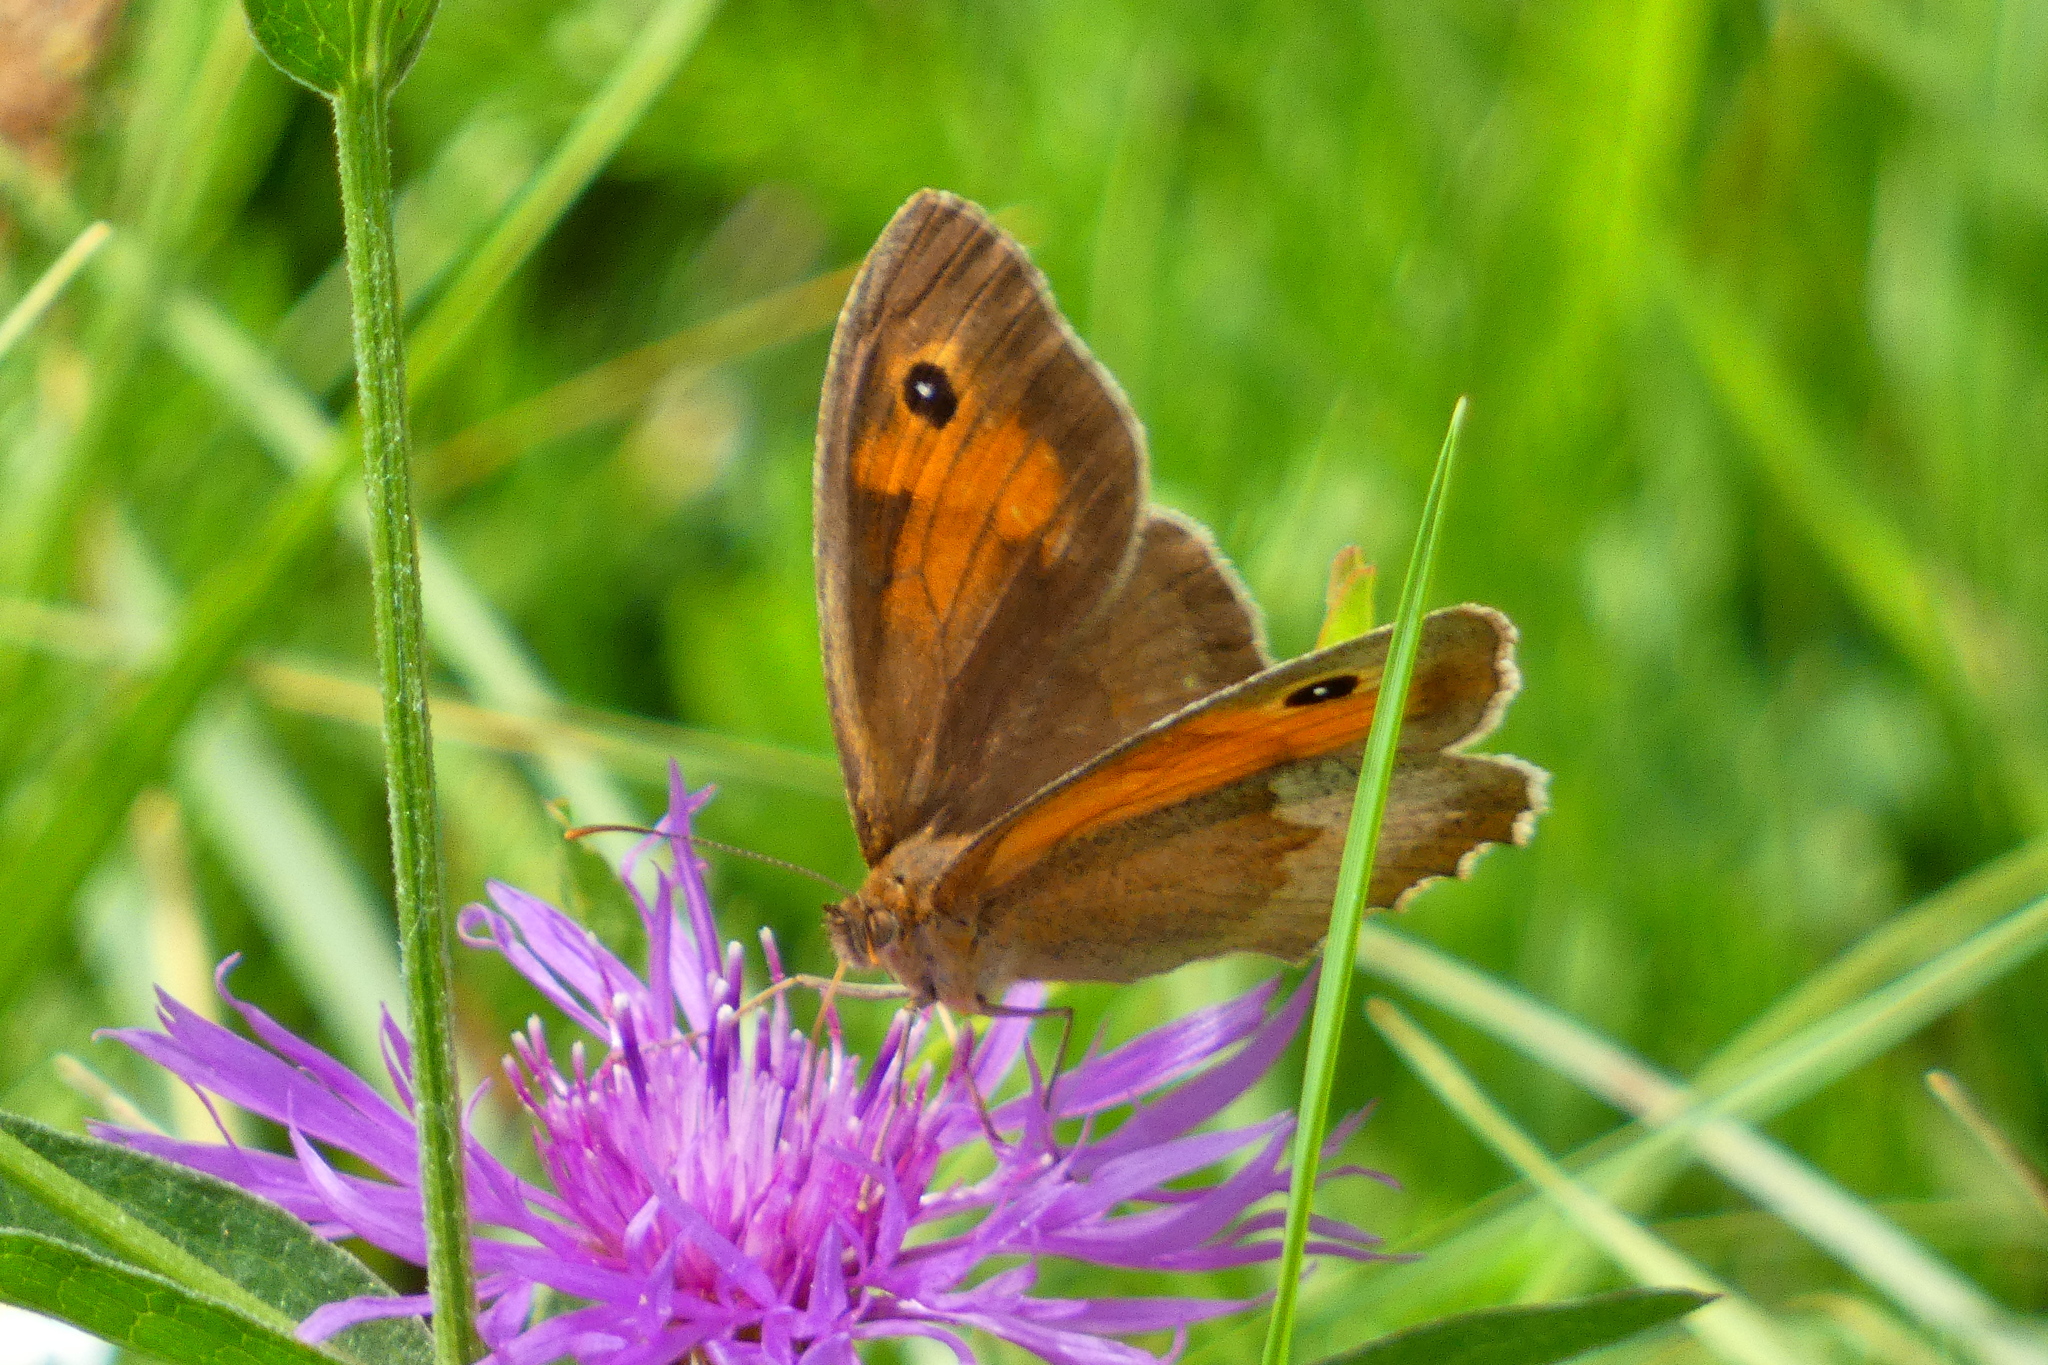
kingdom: Animalia
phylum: Arthropoda
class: Insecta
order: Lepidoptera
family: Nymphalidae
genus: Maniola
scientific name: Maniola jurtina
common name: Meadow brown
